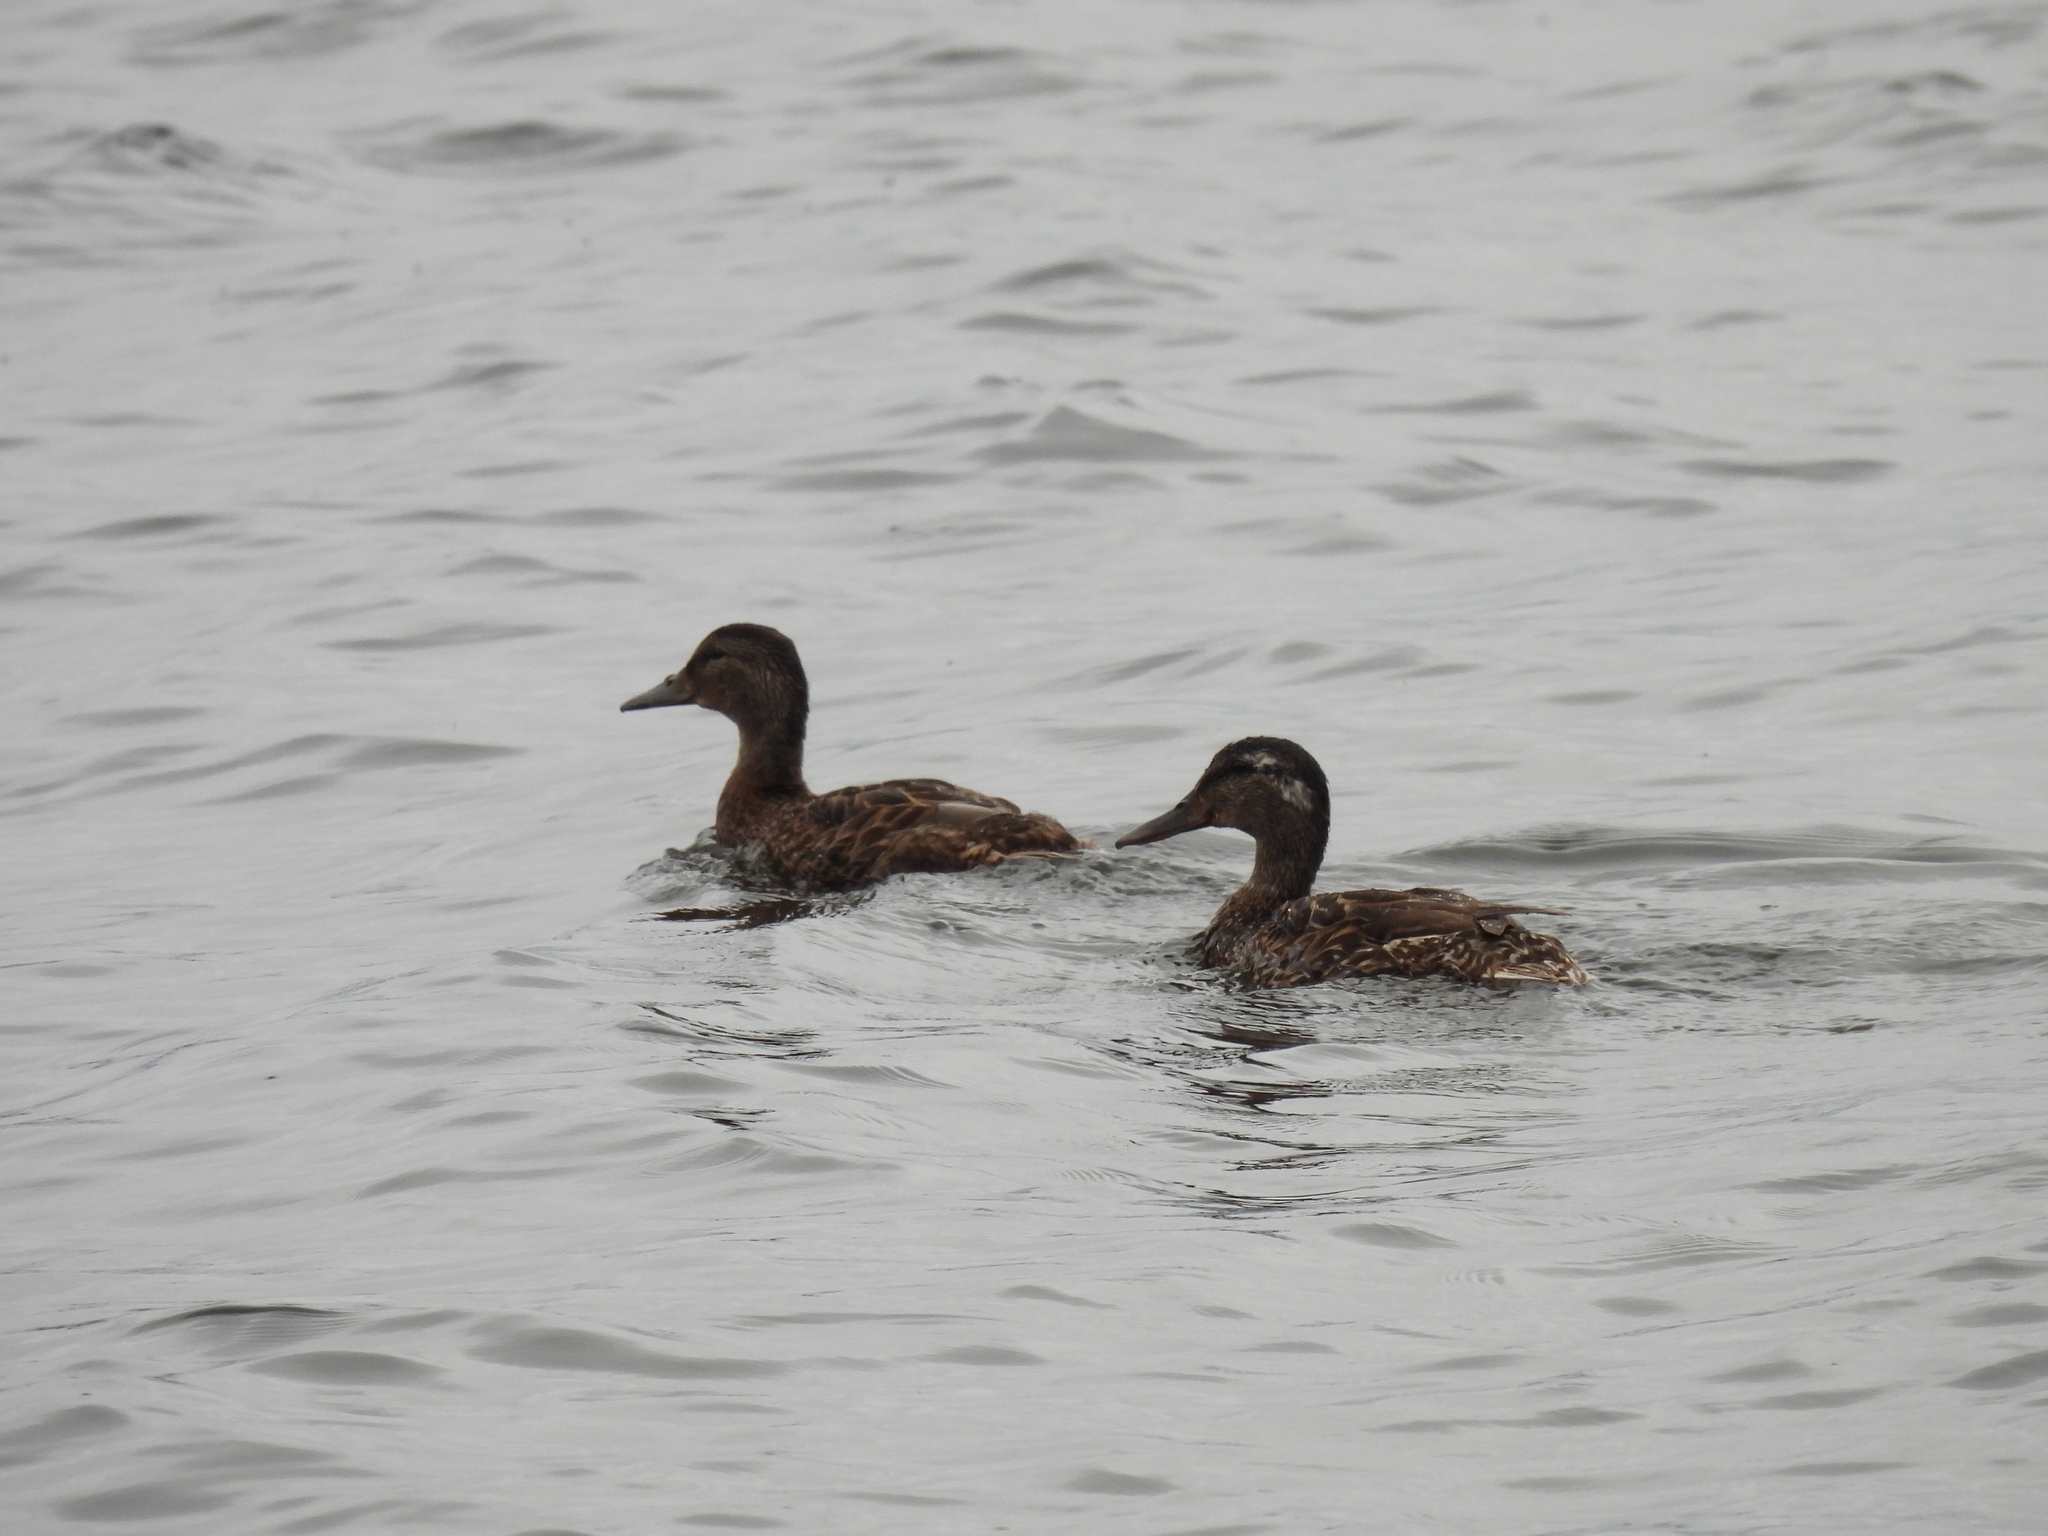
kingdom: Animalia
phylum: Chordata
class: Aves
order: Anseriformes
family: Anatidae
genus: Anas
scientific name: Anas platyrhynchos
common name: Mallard
